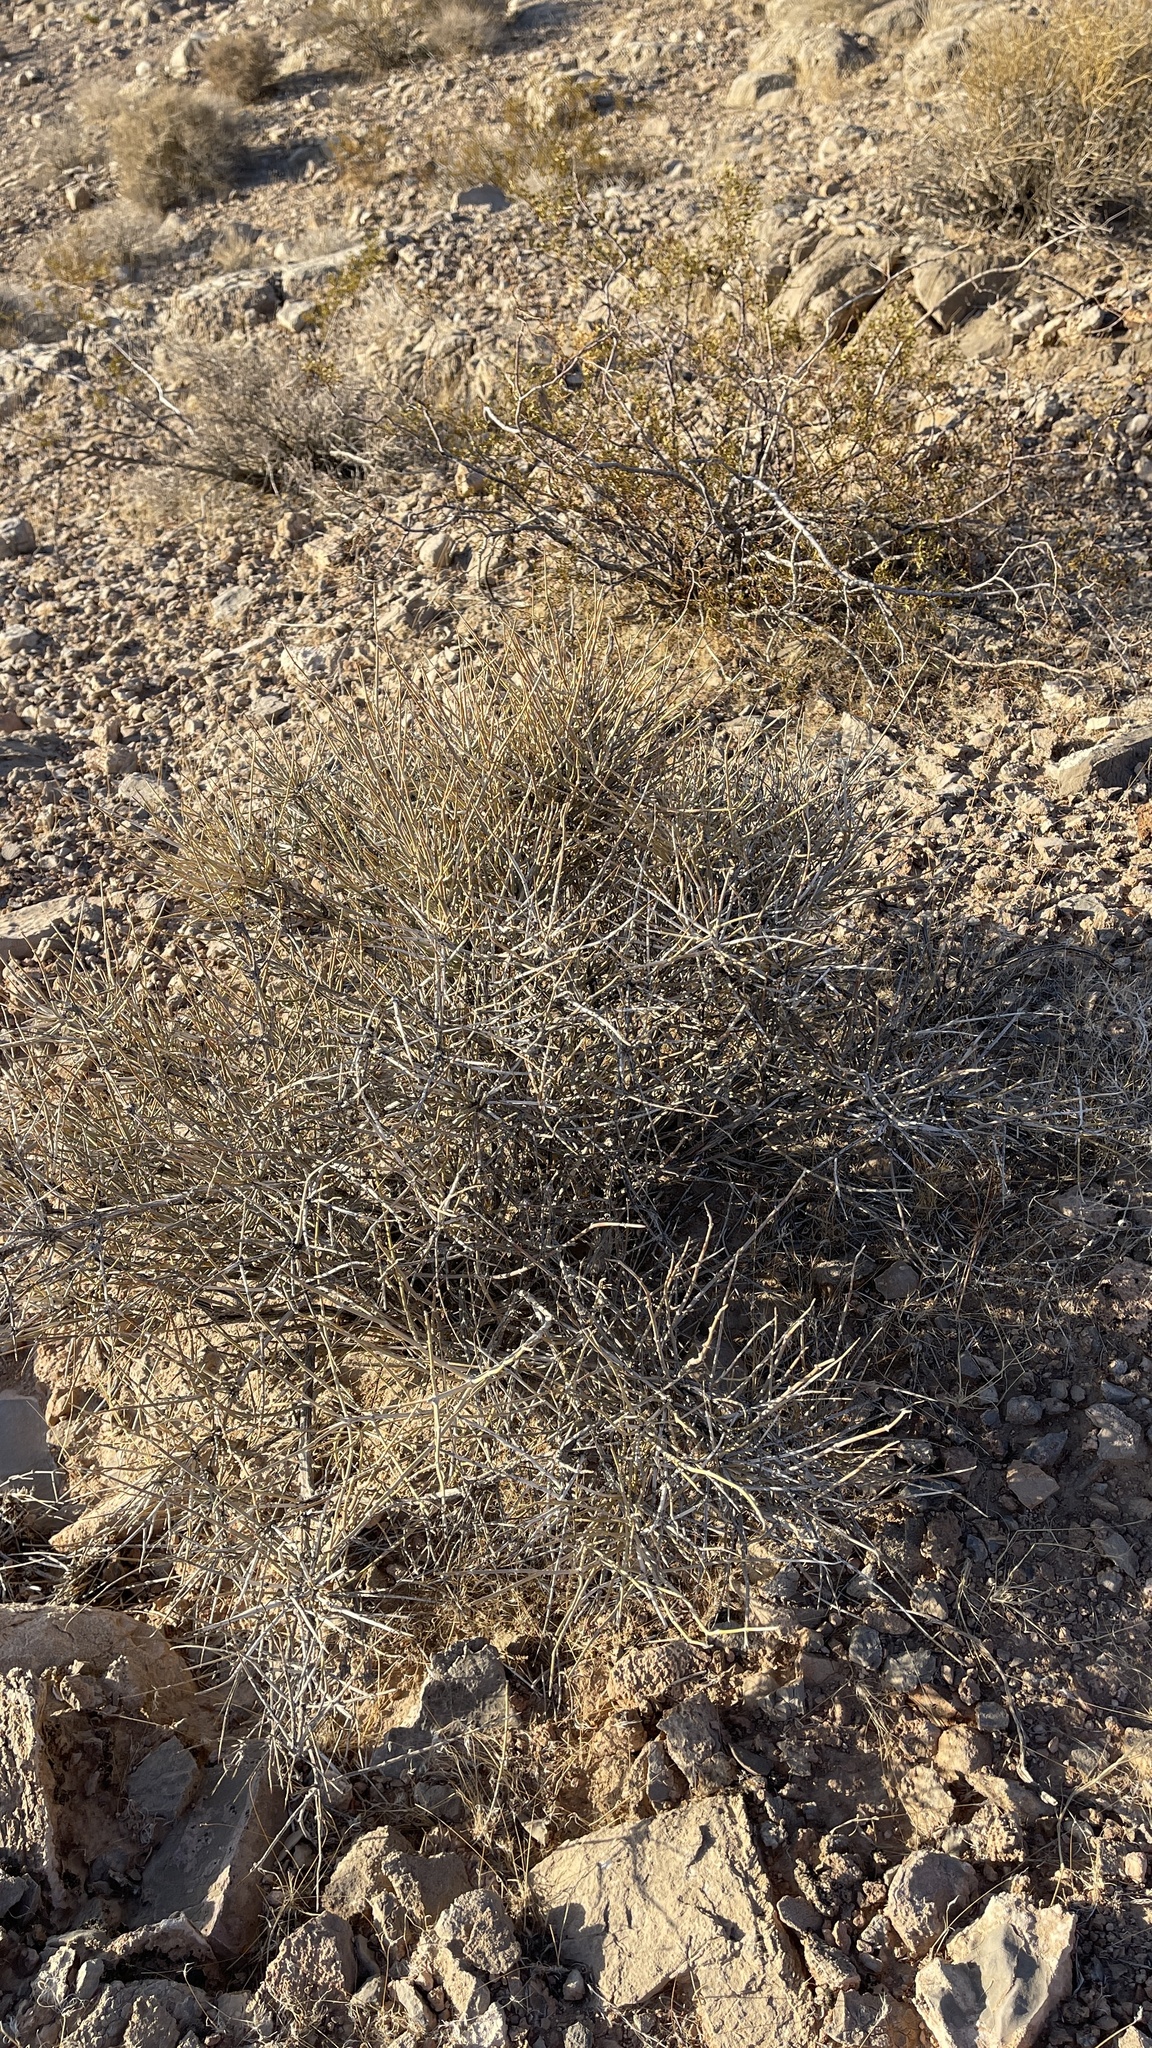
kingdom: Plantae
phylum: Tracheophyta
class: Gnetopsida
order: Ephedrales
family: Ephedraceae
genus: Ephedra
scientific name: Ephedra nevadensis
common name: Gray ephedra
